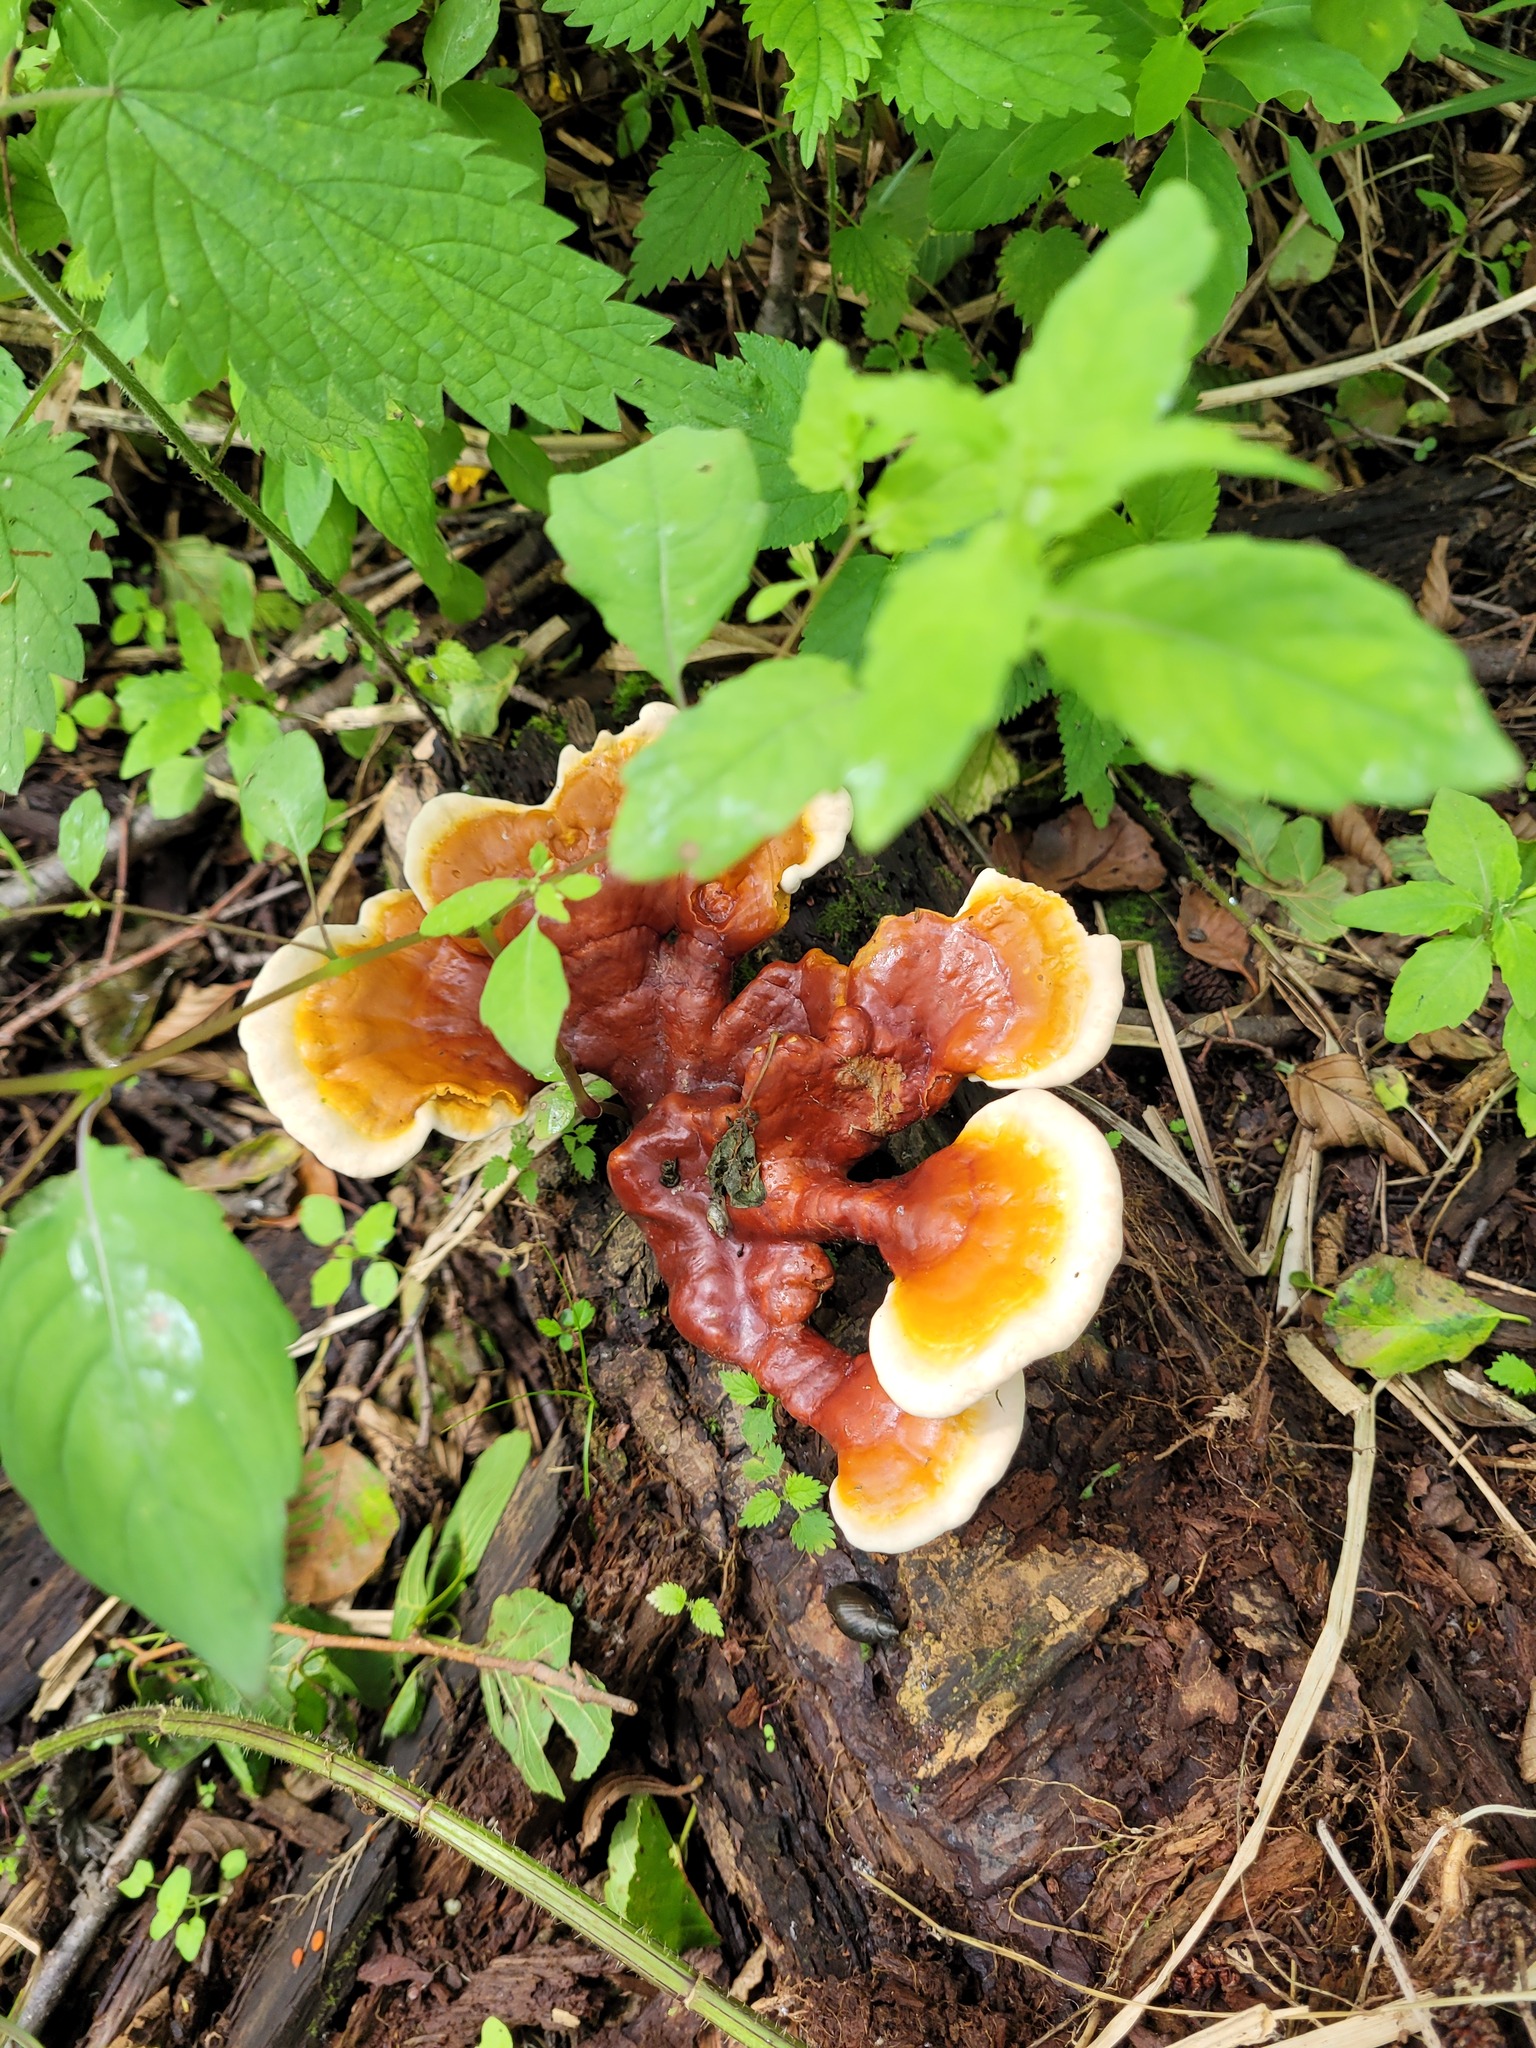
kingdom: Fungi
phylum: Basidiomycota
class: Agaricomycetes
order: Polyporales
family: Polyporaceae
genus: Ganoderma
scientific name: Ganoderma lucidum
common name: Lacquered bracket
